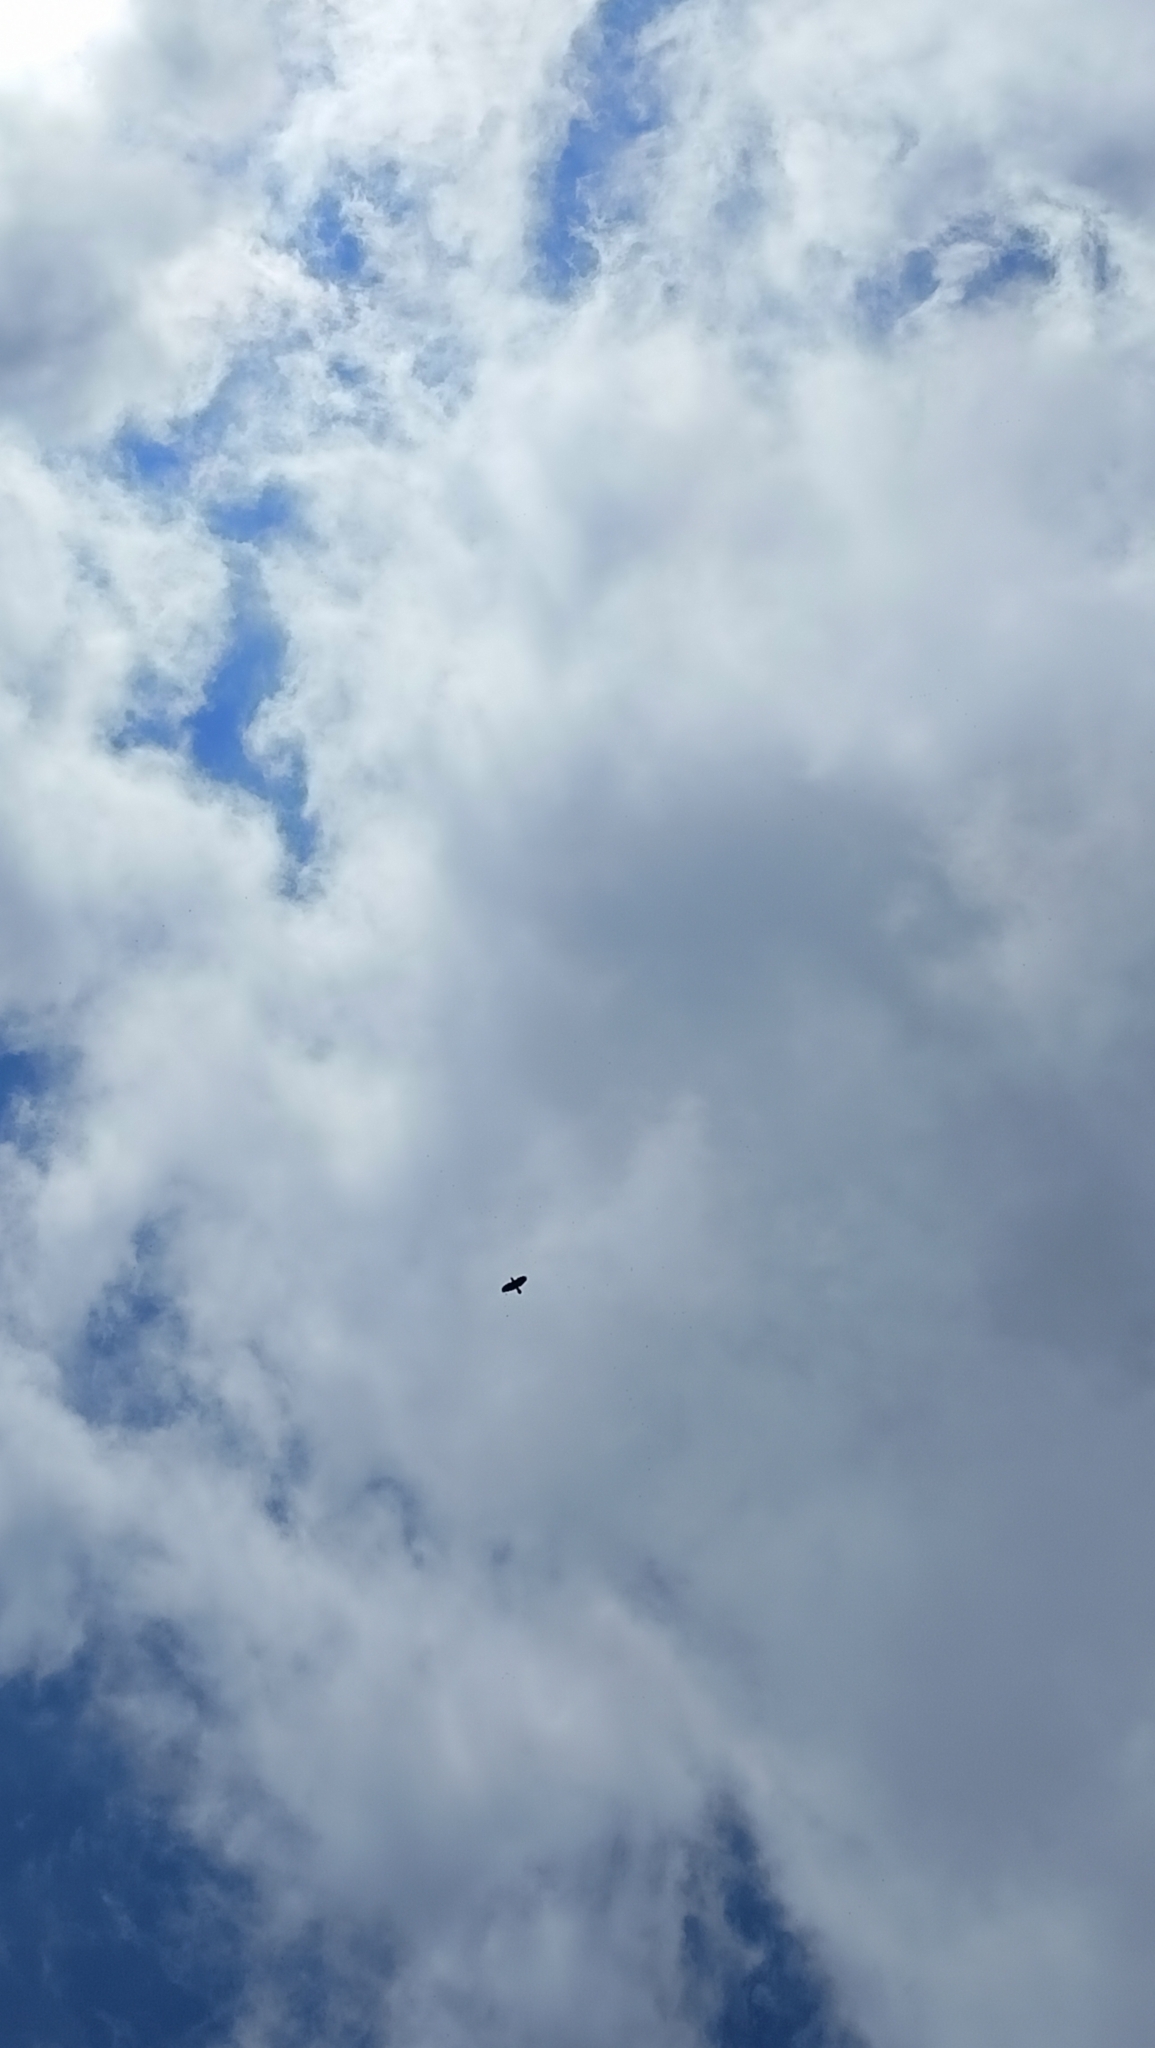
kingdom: Animalia
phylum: Chordata
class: Aves
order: Accipitriformes
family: Accipitridae
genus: Buteo
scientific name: Buteo buteo
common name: Common buzzard
